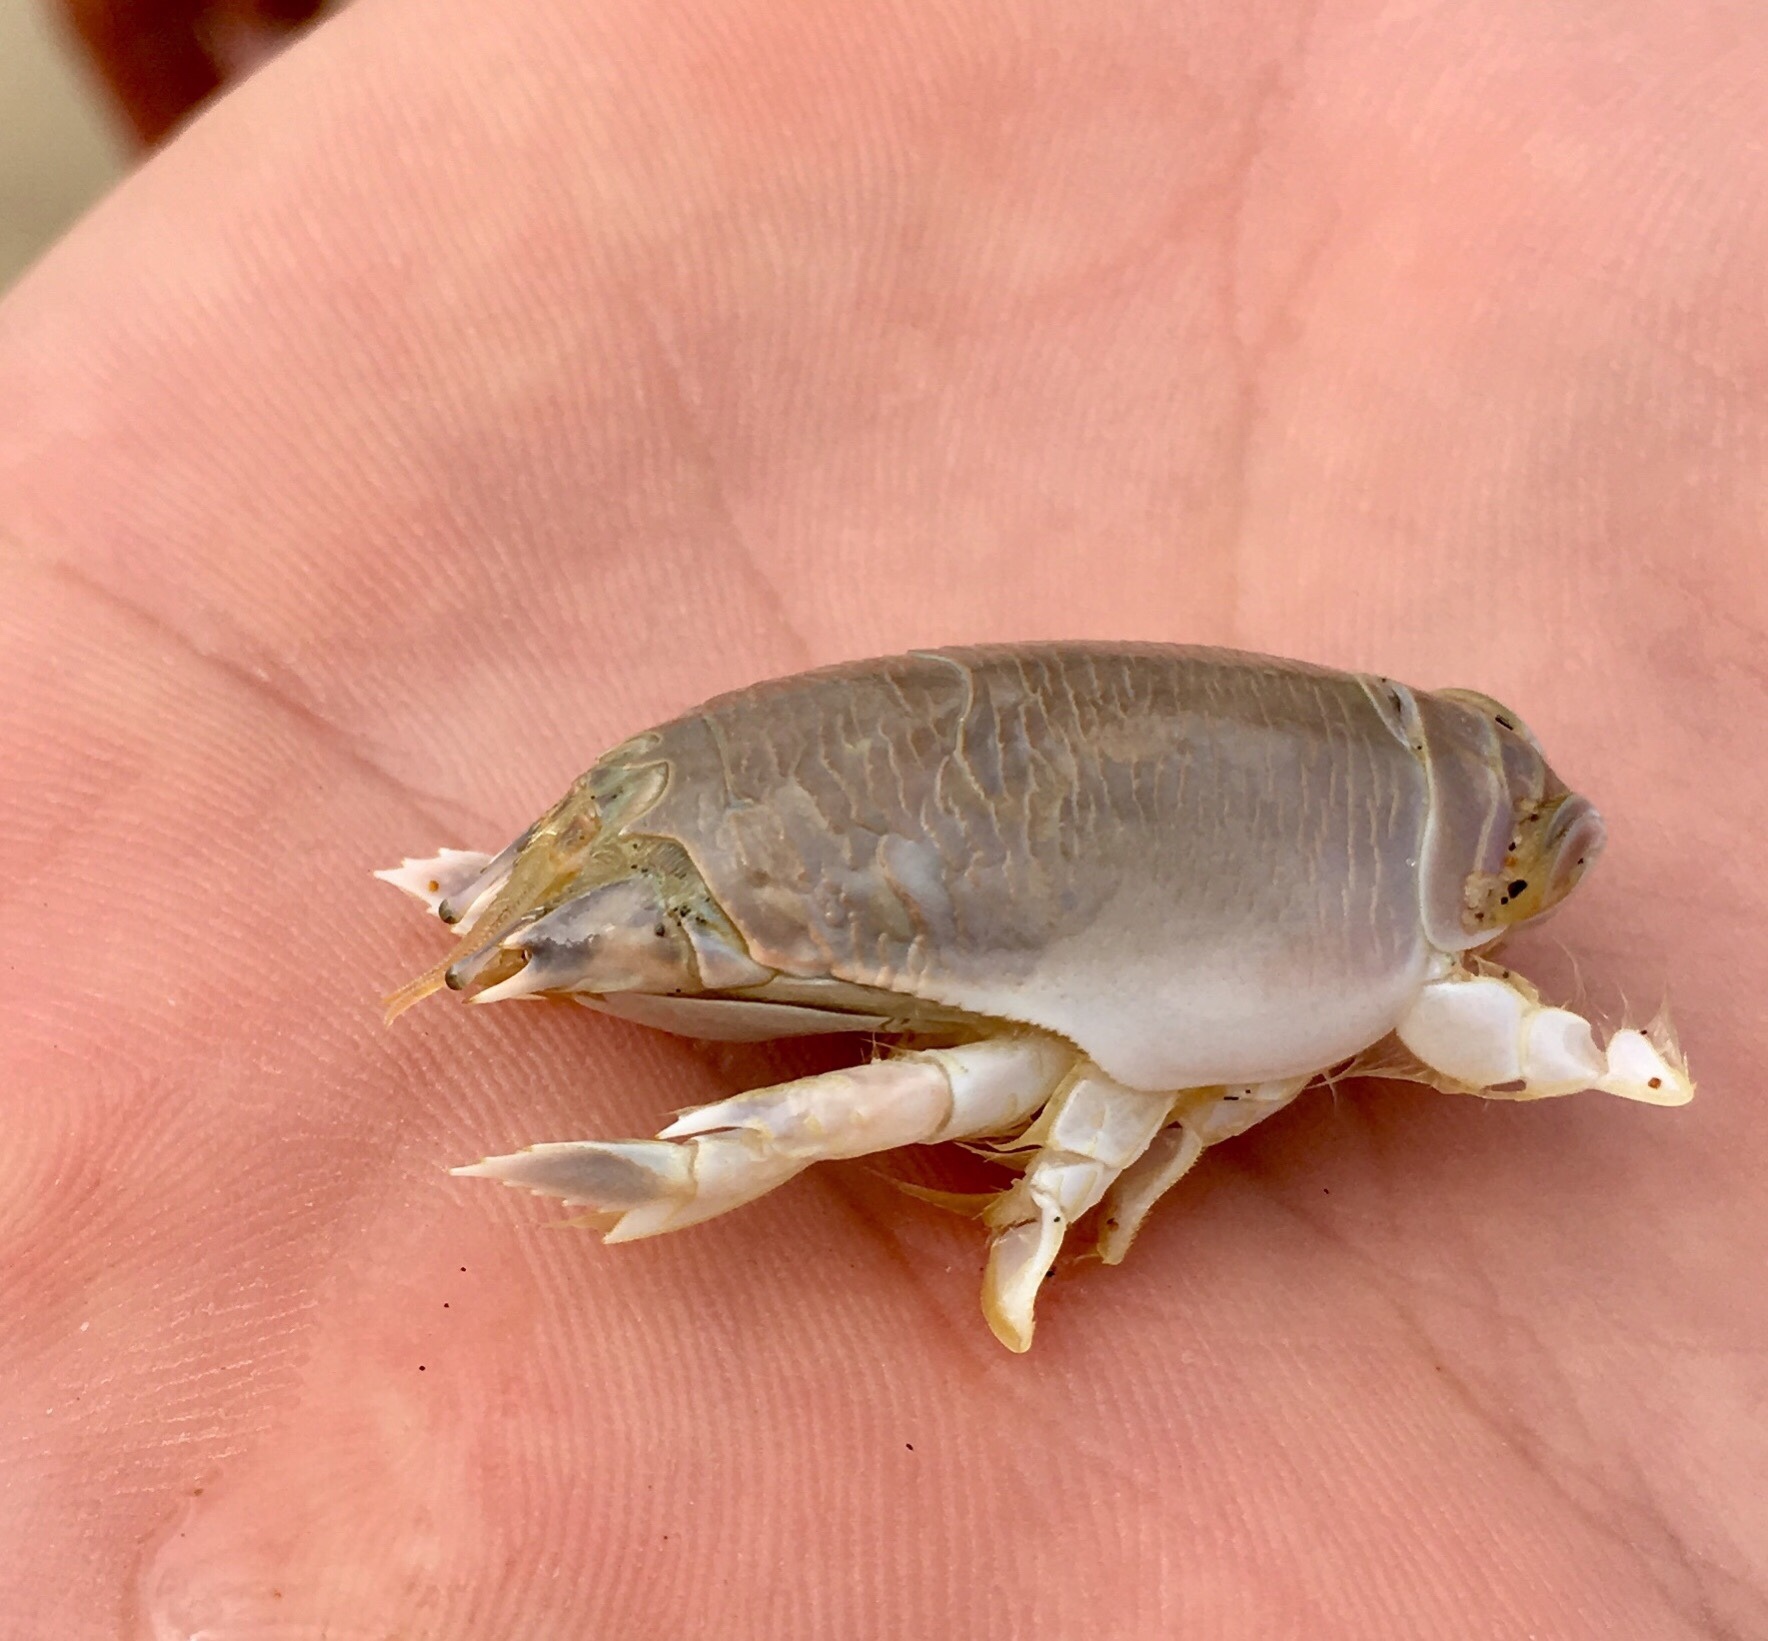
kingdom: Animalia
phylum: Arthropoda
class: Malacostraca
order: Decapoda
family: Hippidae
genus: Emerita
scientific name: Emerita austroafricana
